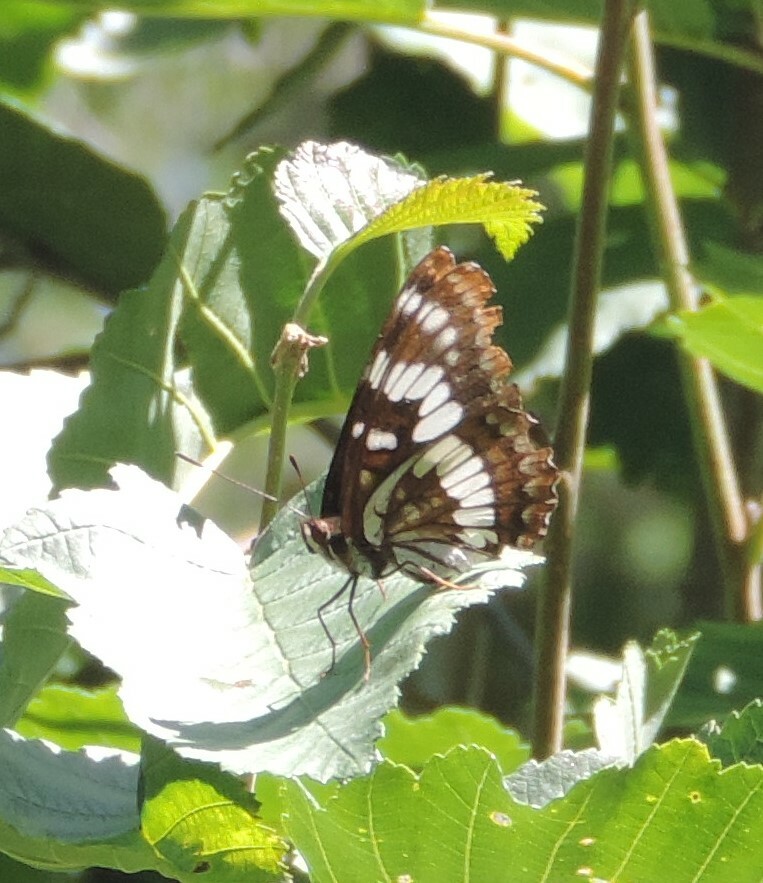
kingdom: Animalia
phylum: Arthropoda
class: Insecta
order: Lepidoptera
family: Nymphalidae
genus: Limenitis
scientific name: Limenitis lorquini
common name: Lorquin's admiral
